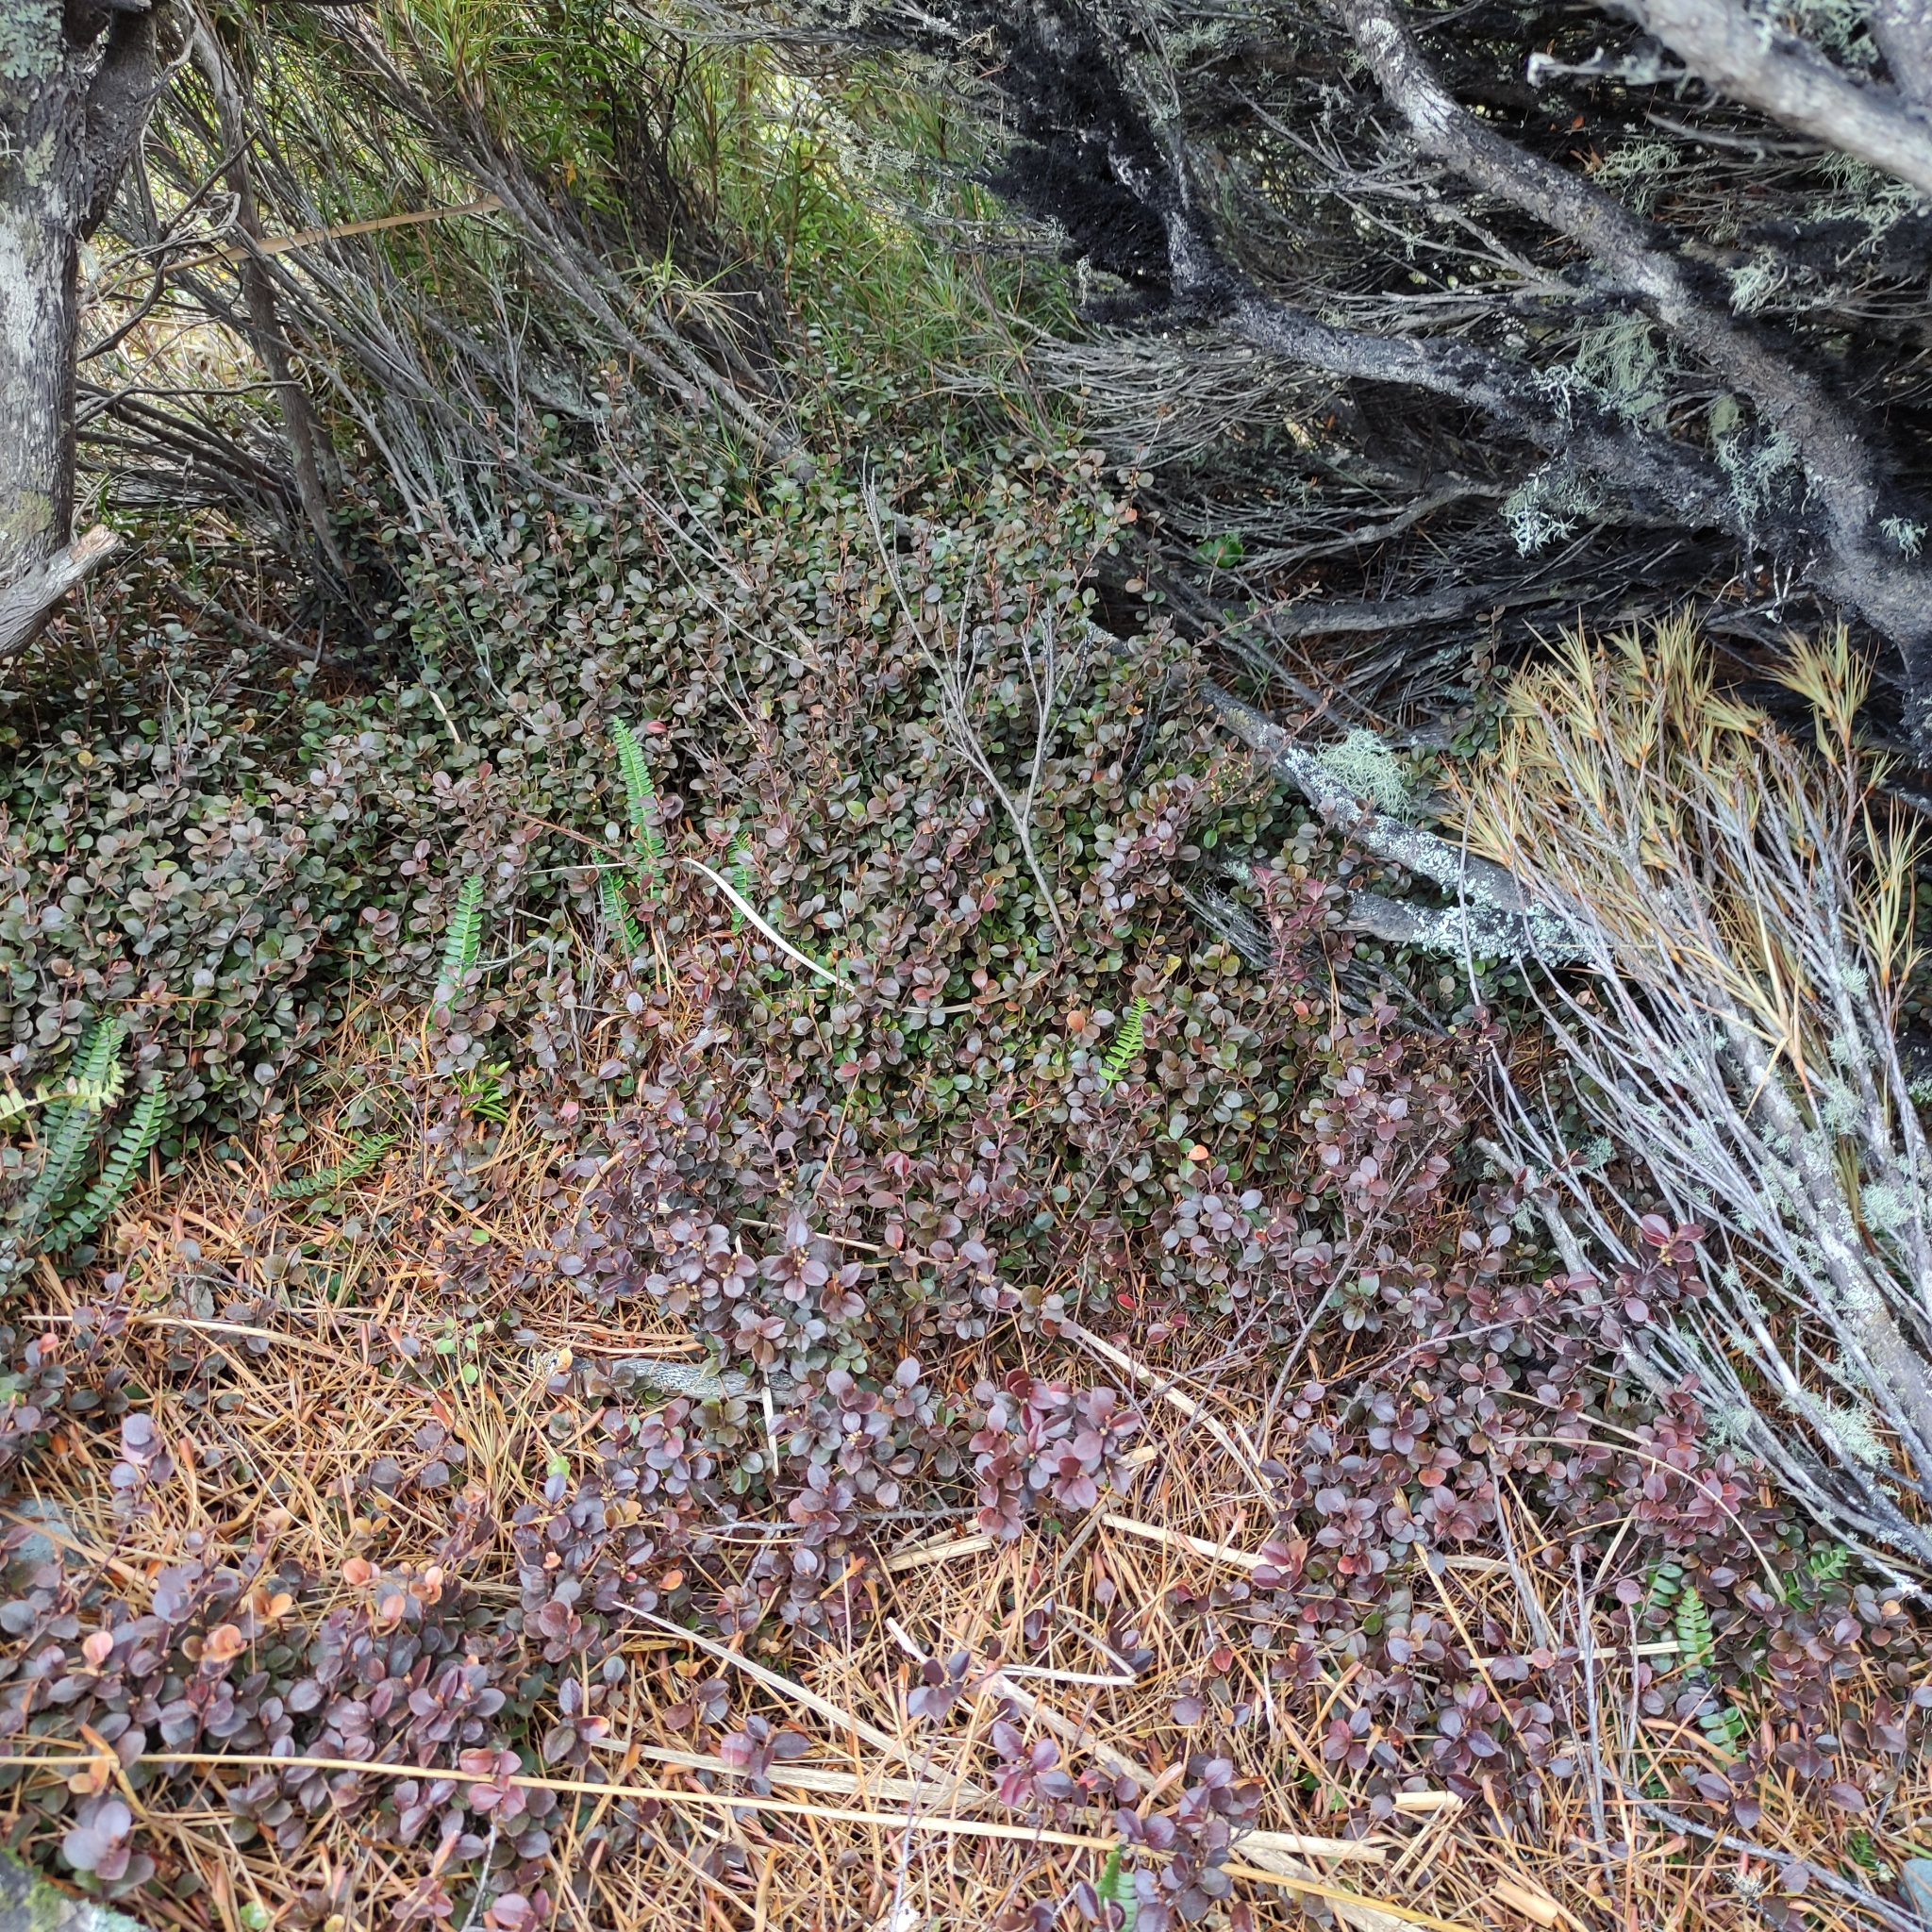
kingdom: Plantae
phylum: Tracheophyta
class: Magnoliopsida
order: Ericales
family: Primulaceae
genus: Myrsine
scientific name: Myrsine nummularia
